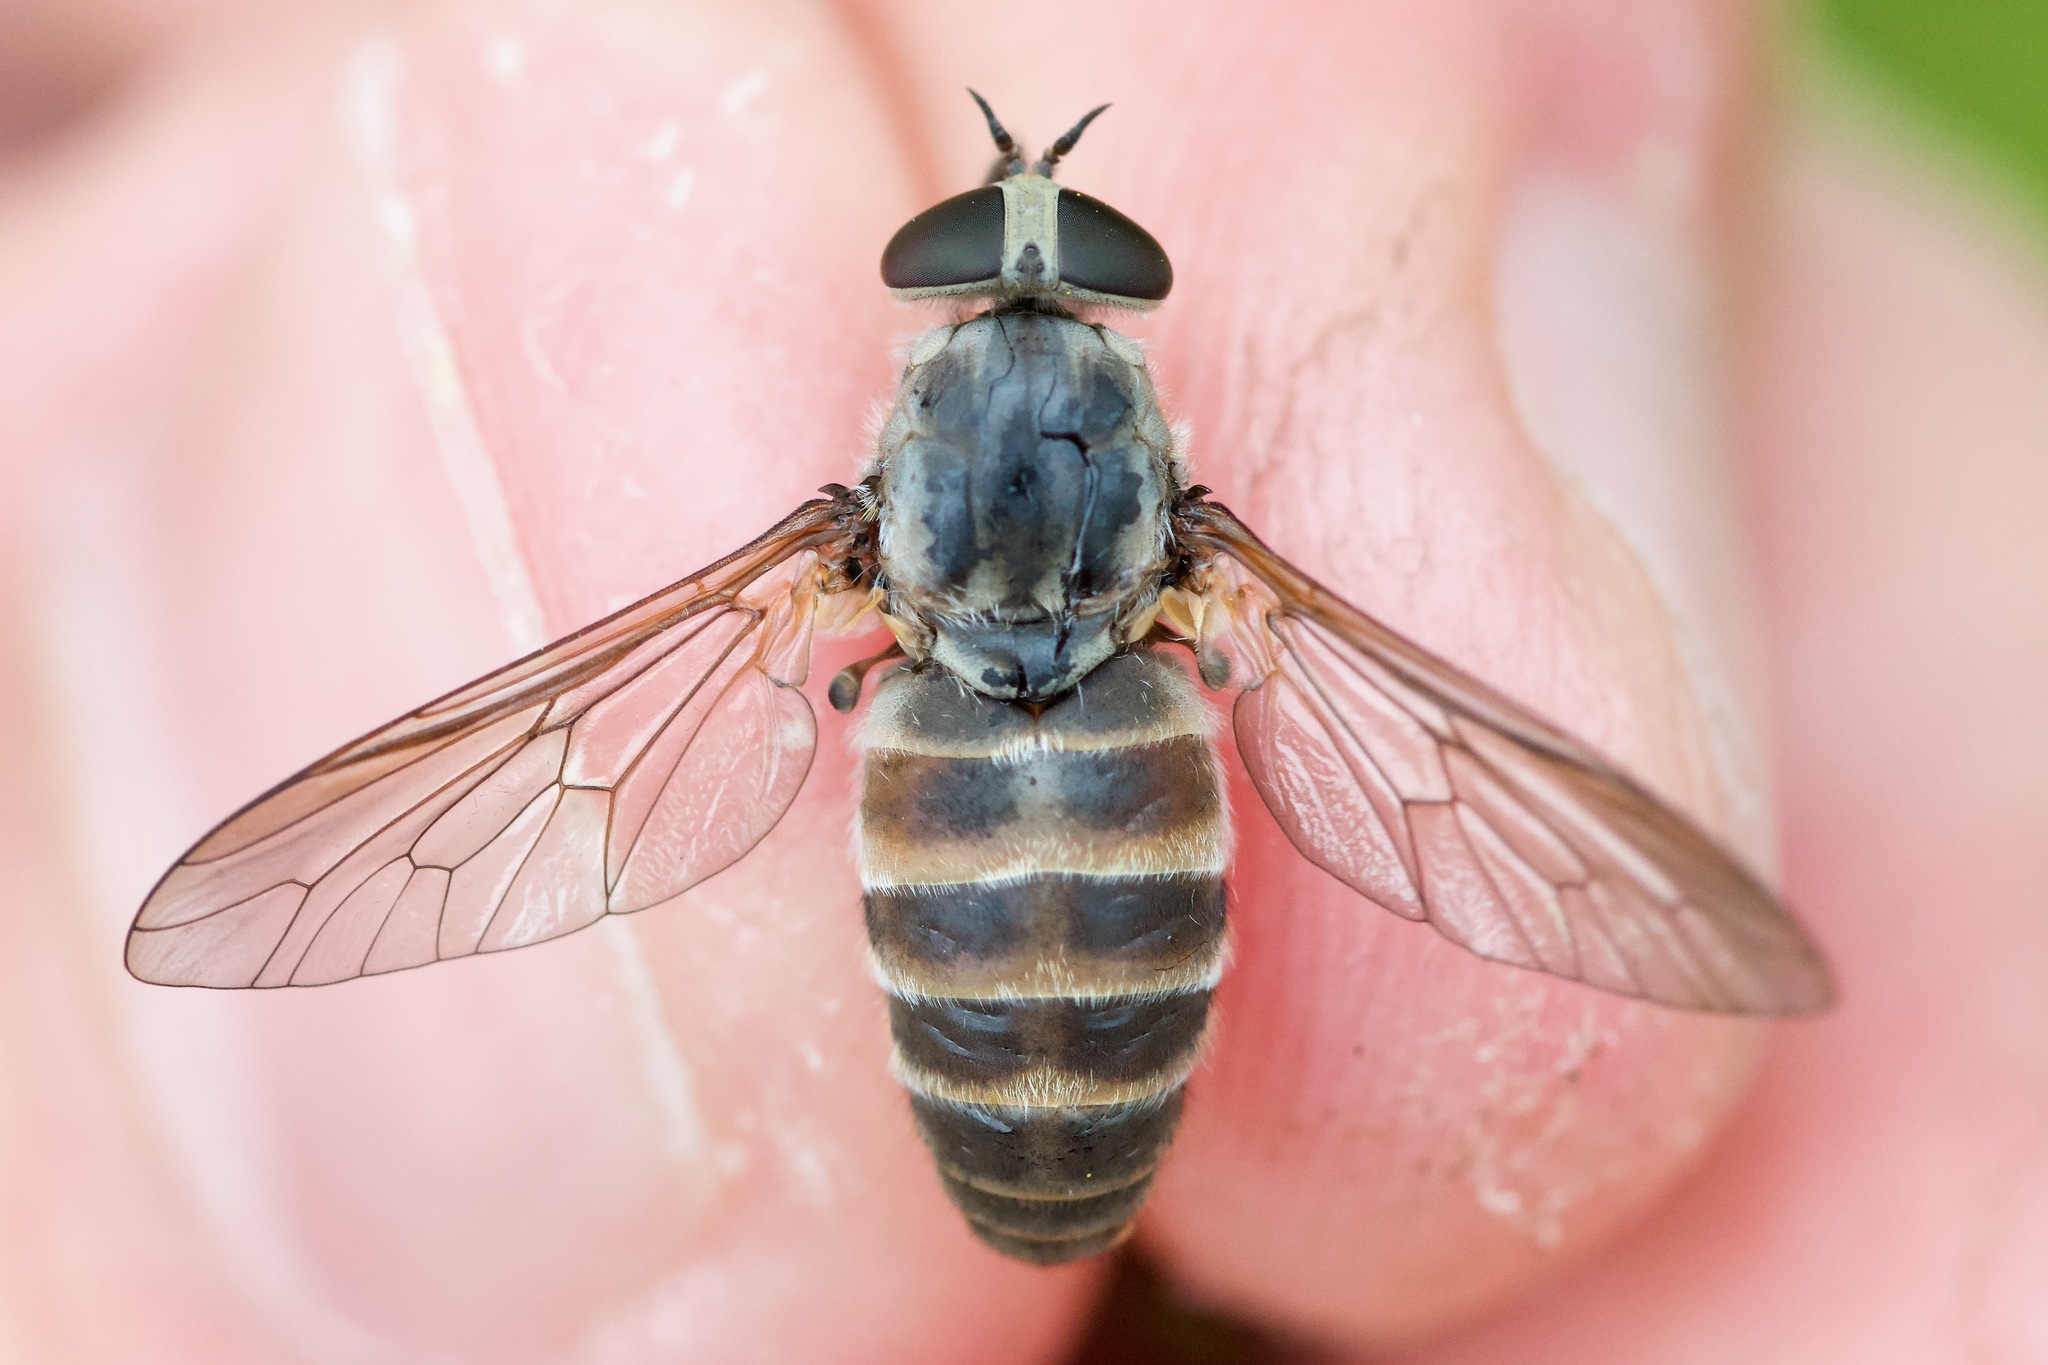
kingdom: Animalia
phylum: Arthropoda
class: Insecta
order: Diptera
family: Tabanidae
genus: Stonemyia
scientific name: Stonemyia rasa
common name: Shaved horse fly
